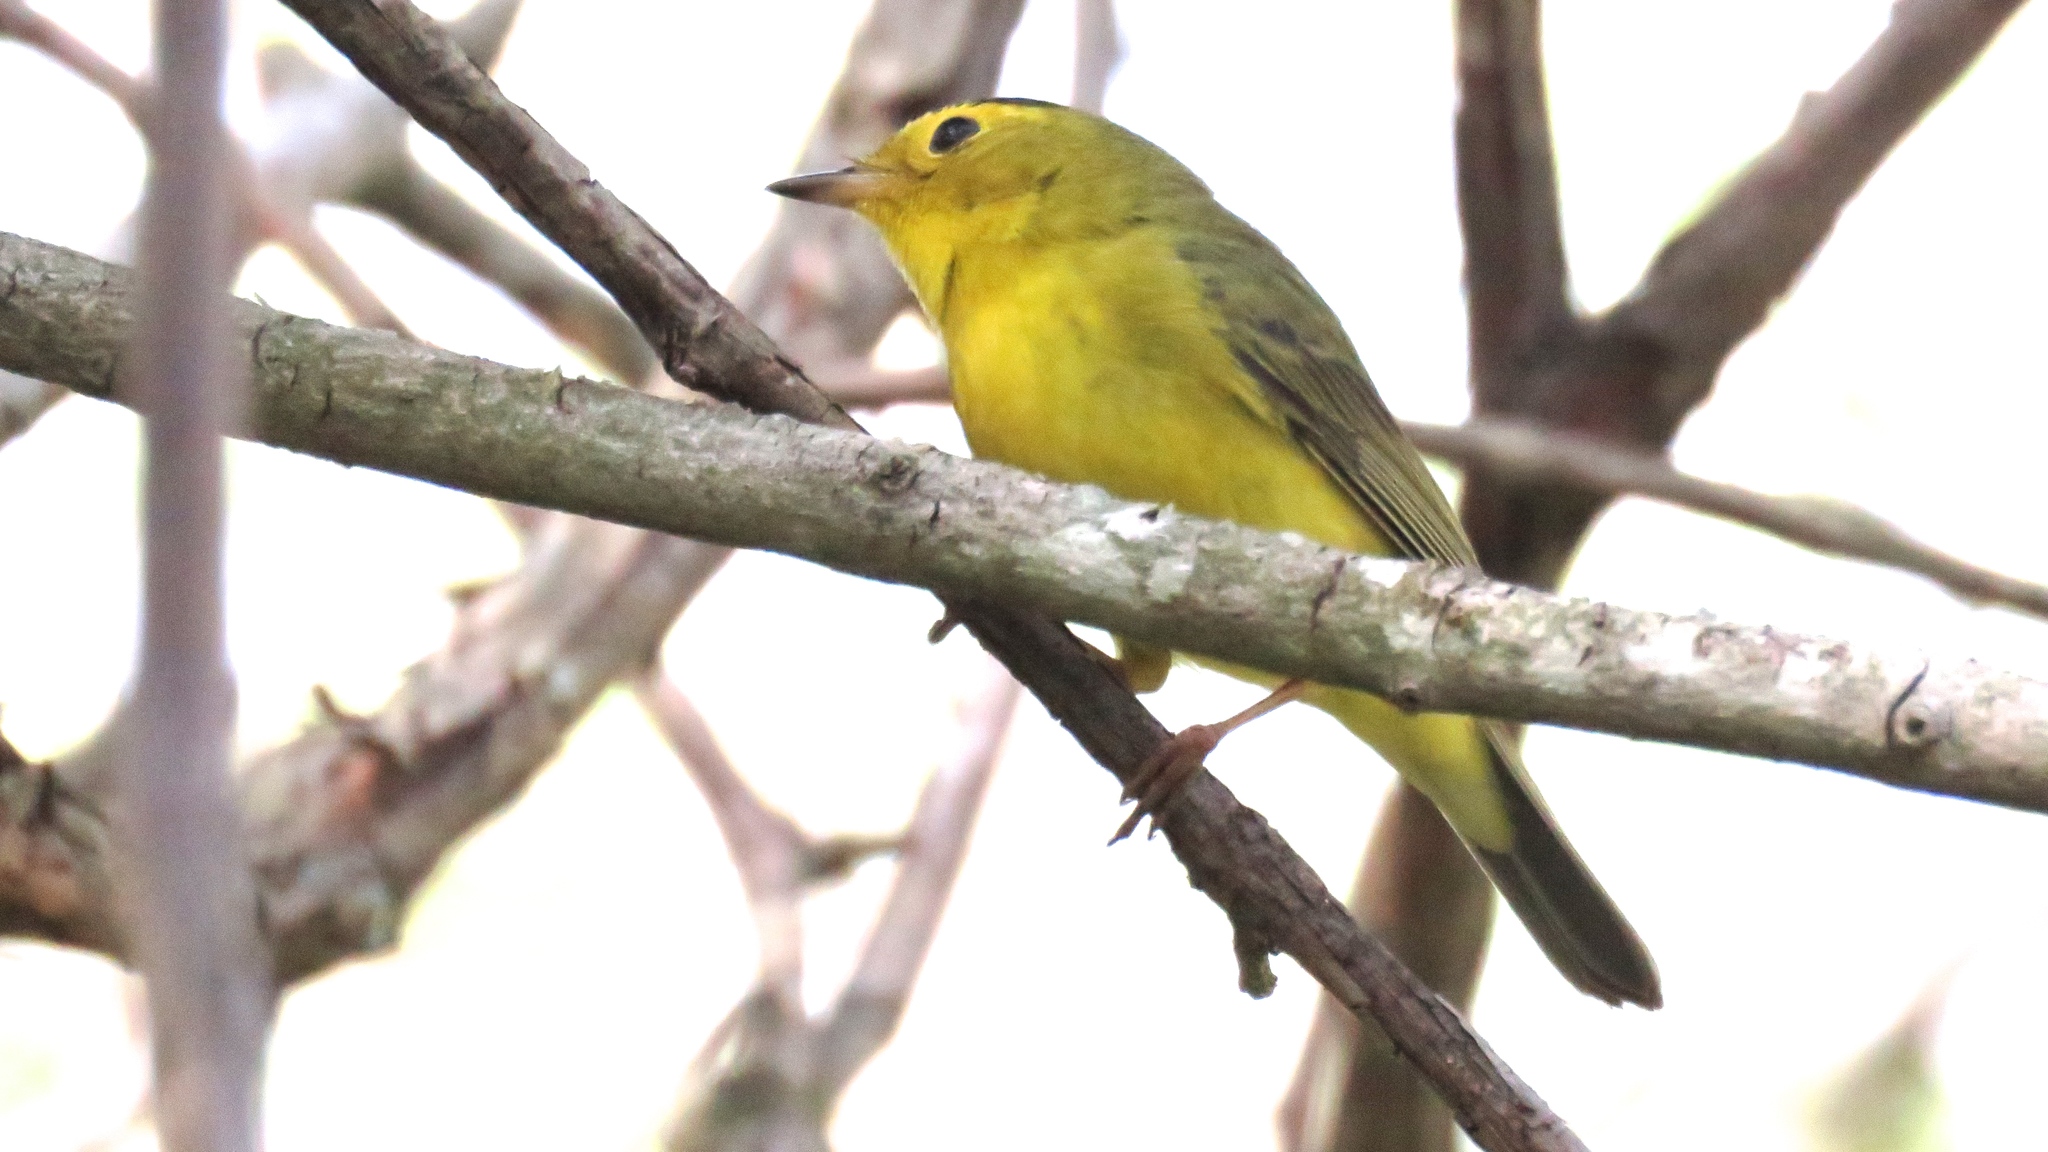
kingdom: Animalia
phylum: Chordata
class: Aves
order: Passeriformes
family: Parulidae
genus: Cardellina
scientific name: Cardellina pusilla
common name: Wilson's warbler
